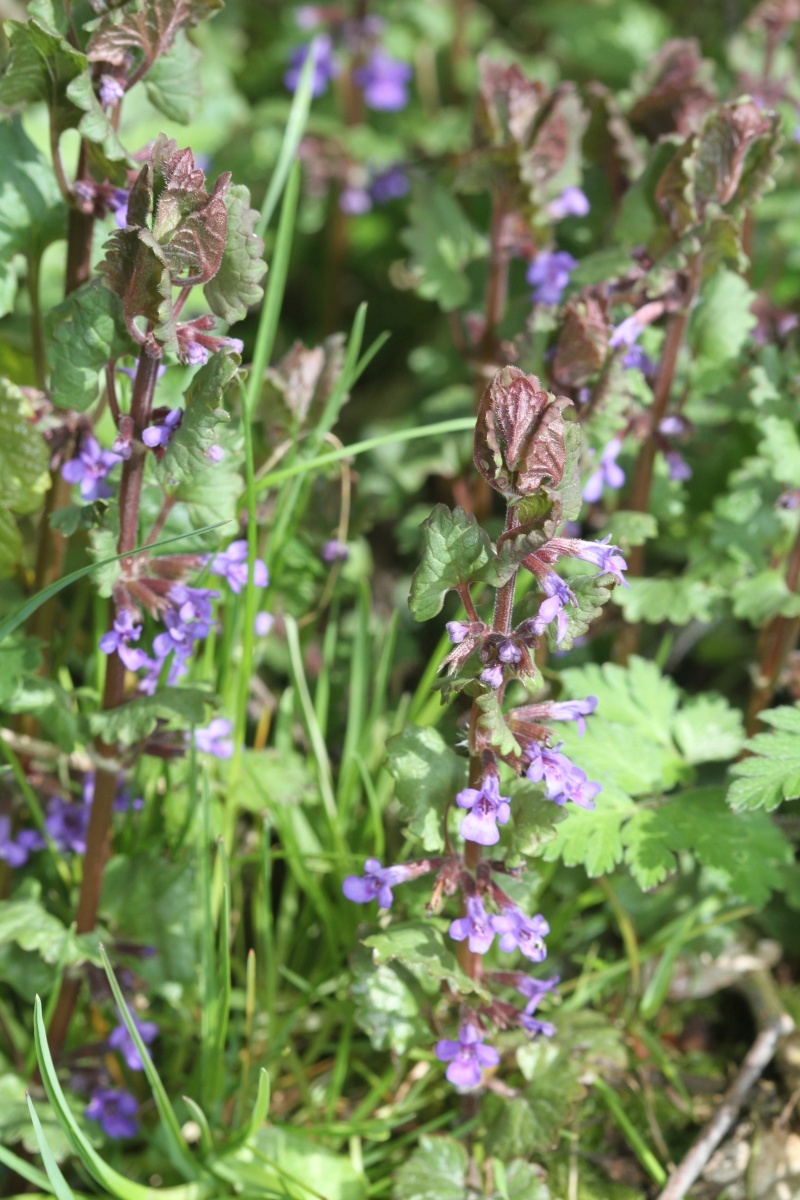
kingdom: Plantae
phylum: Tracheophyta
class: Magnoliopsida
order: Lamiales
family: Lamiaceae
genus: Glechoma
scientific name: Glechoma hederacea
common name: Ground ivy
